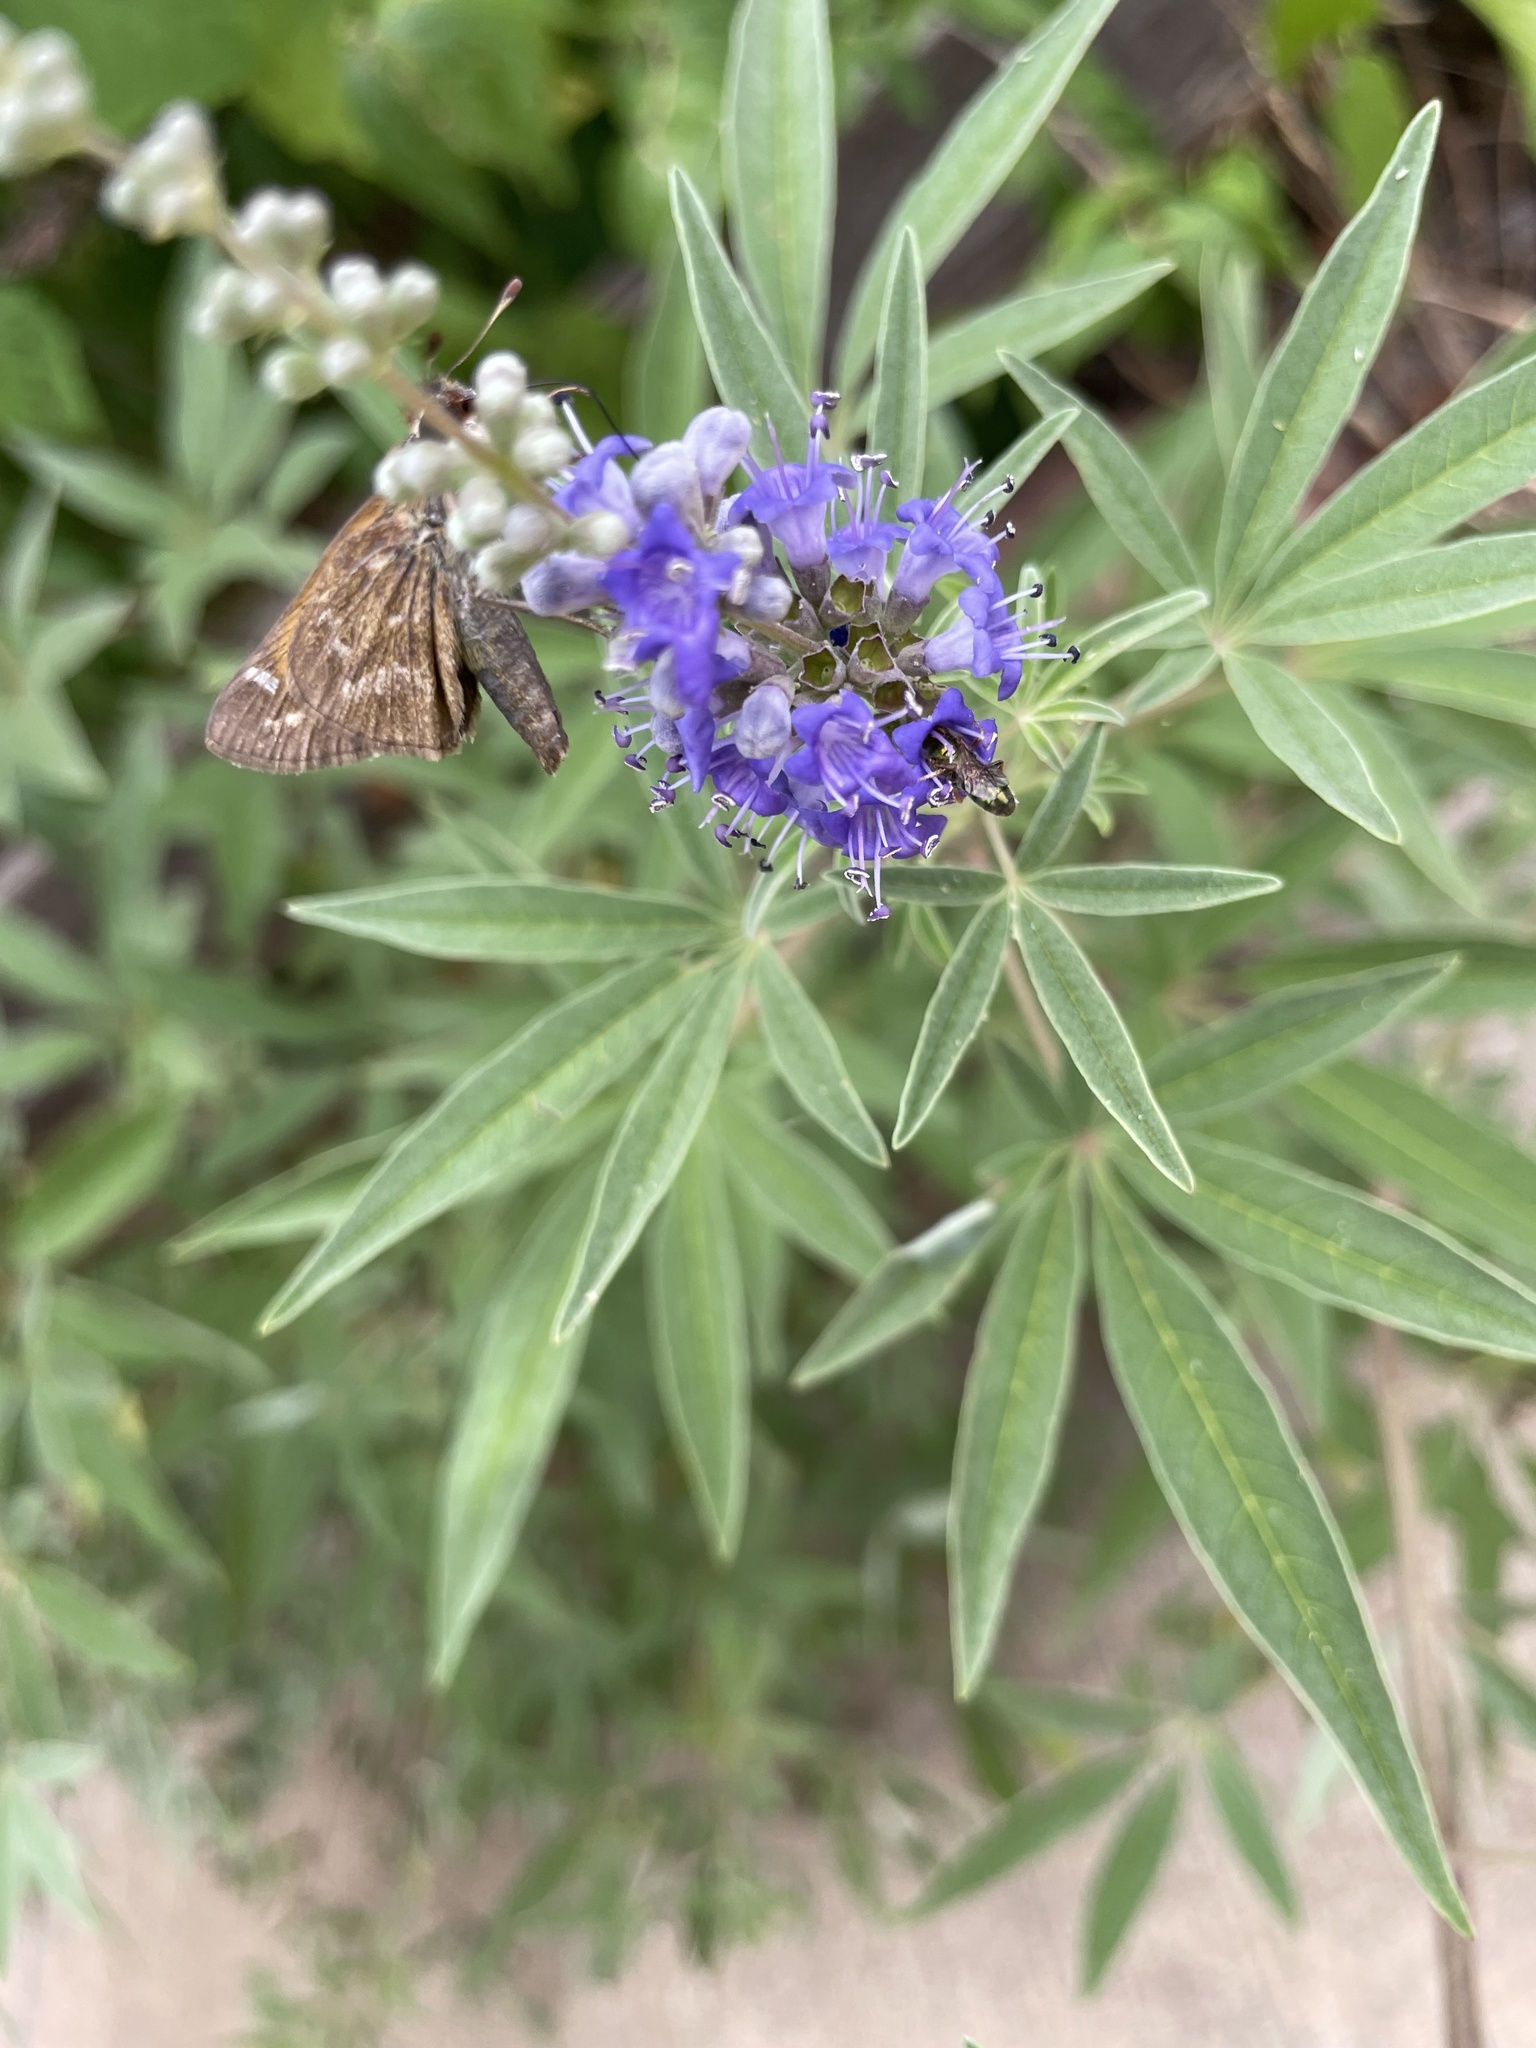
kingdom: Animalia
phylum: Arthropoda
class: Insecta
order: Lepidoptera
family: Hesperiidae
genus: Atalopedes
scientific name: Atalopedes
